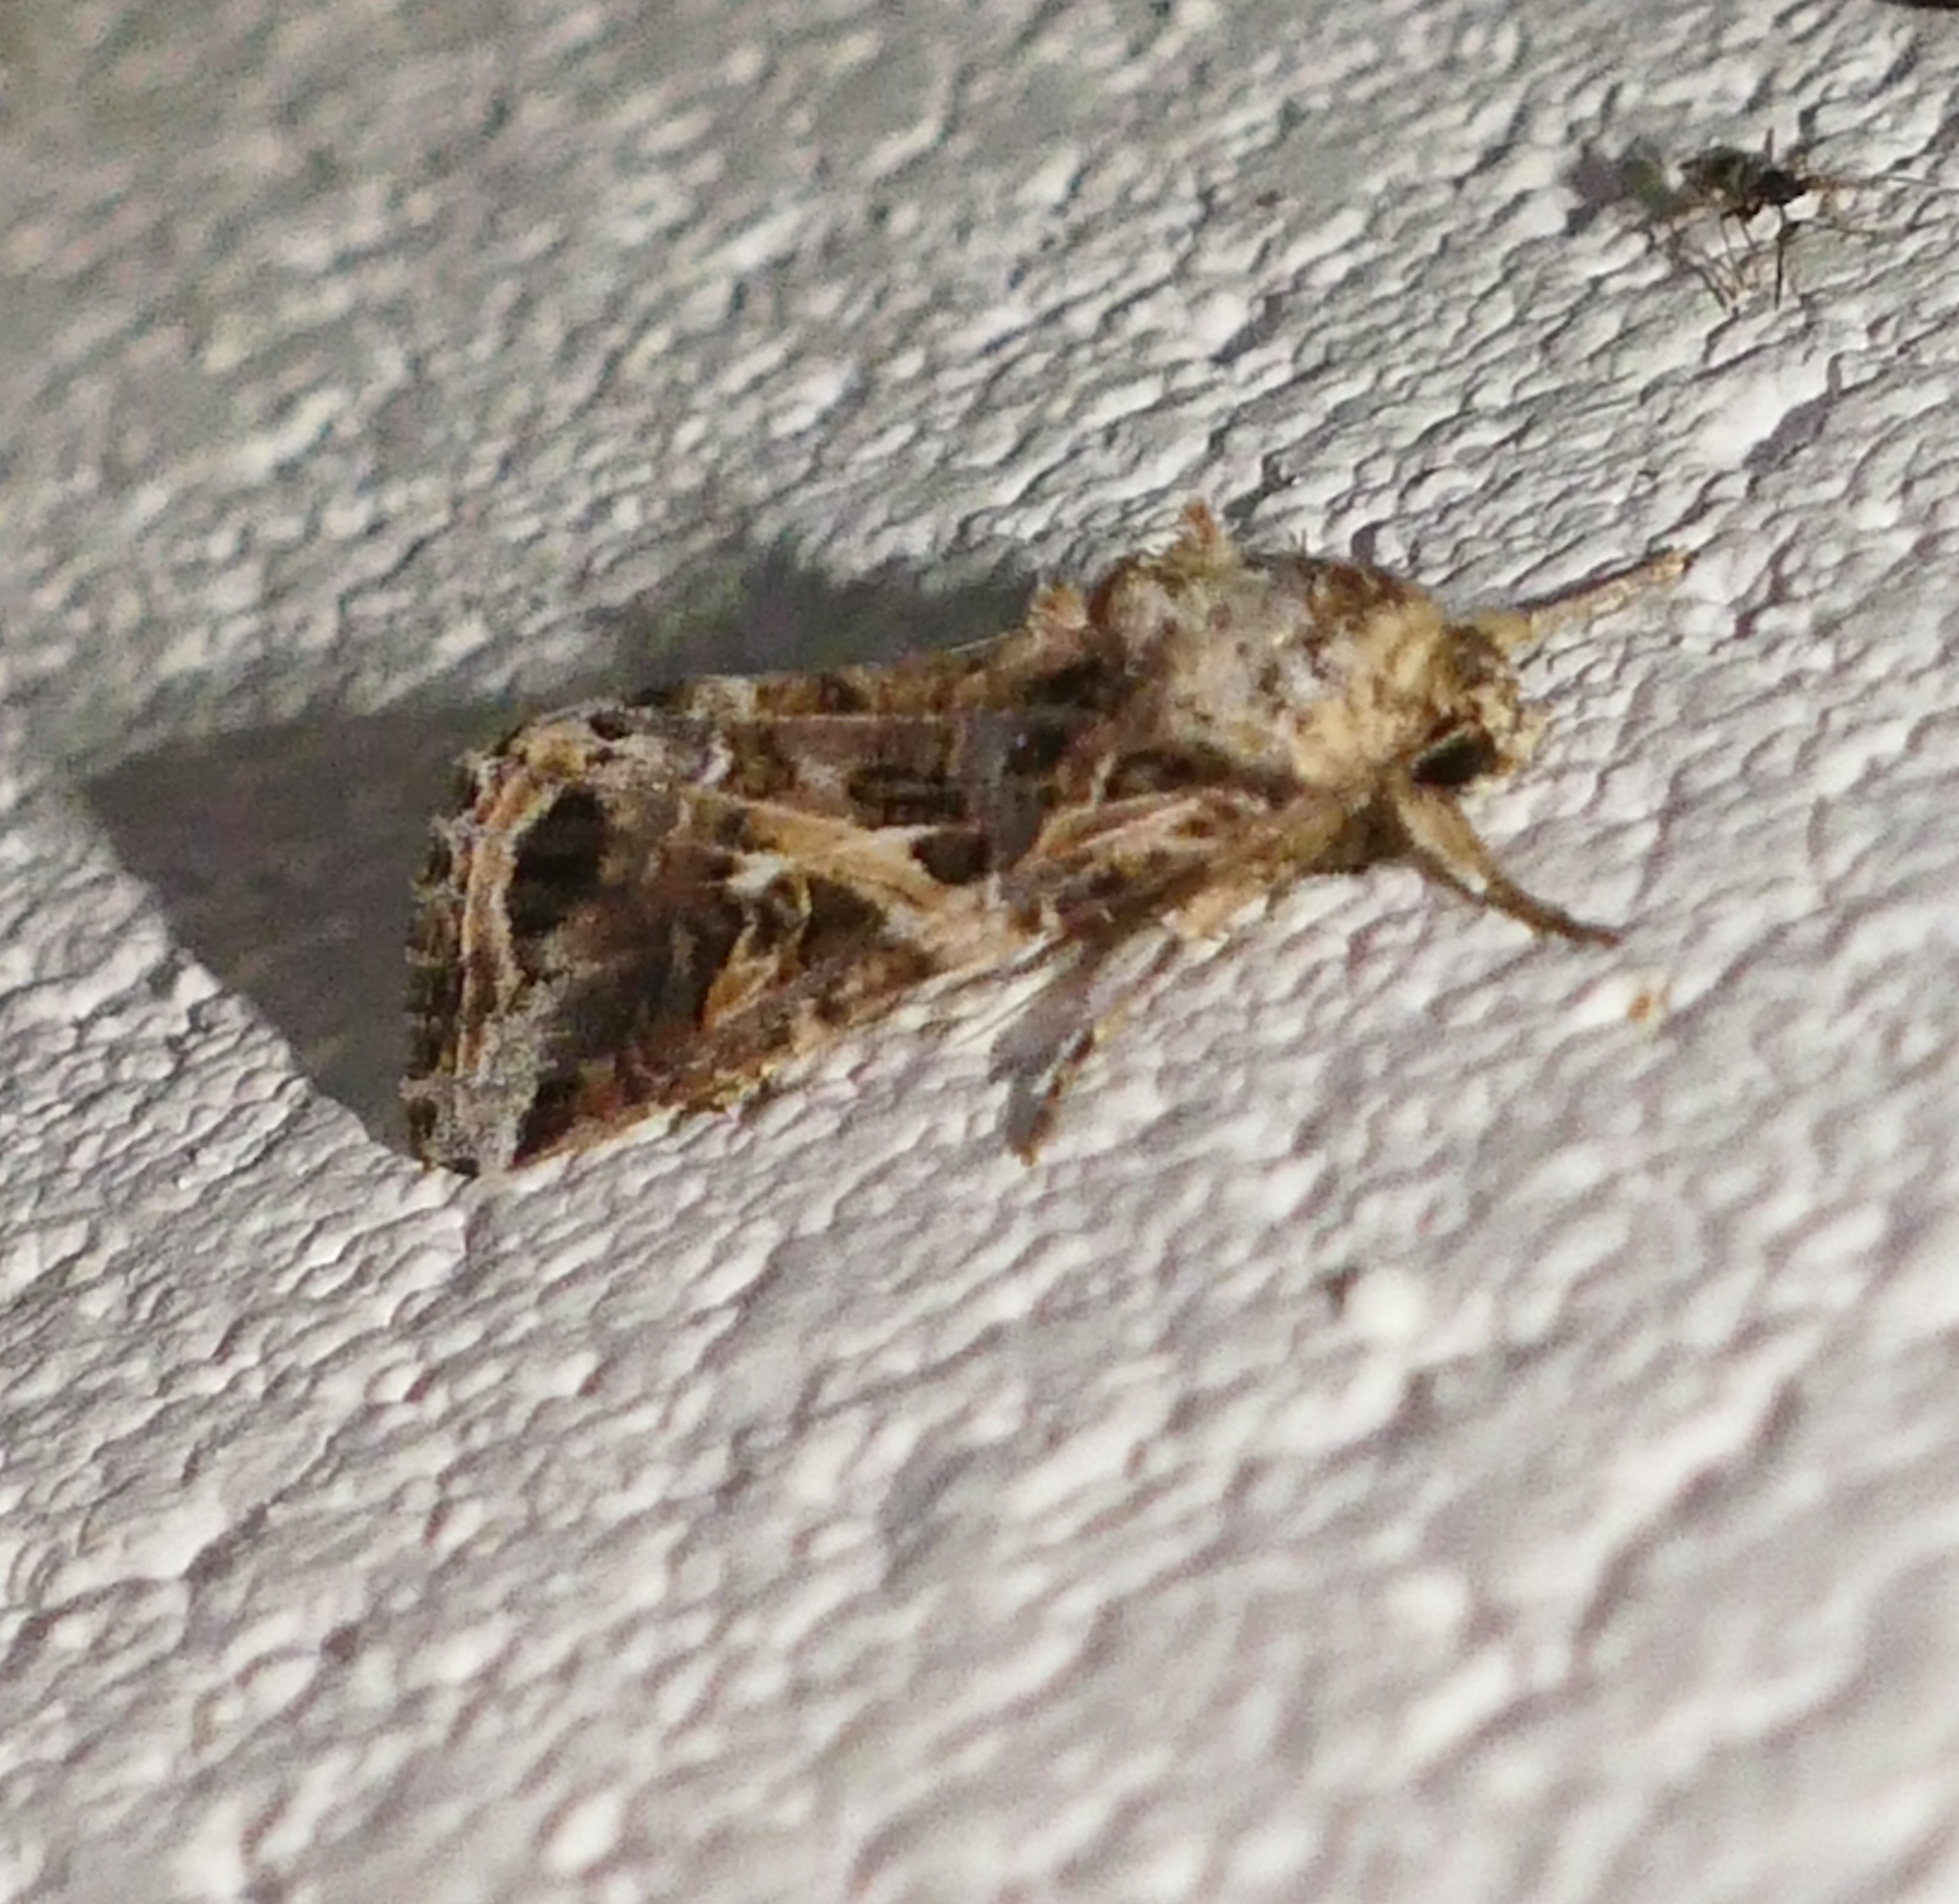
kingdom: Animalia
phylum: Arthropoda
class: Insecta
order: Lepidoptera
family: Noctuidae
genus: Spodoptera
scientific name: Spodoptera ornithogalli
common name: Yellow-striped armyworm
